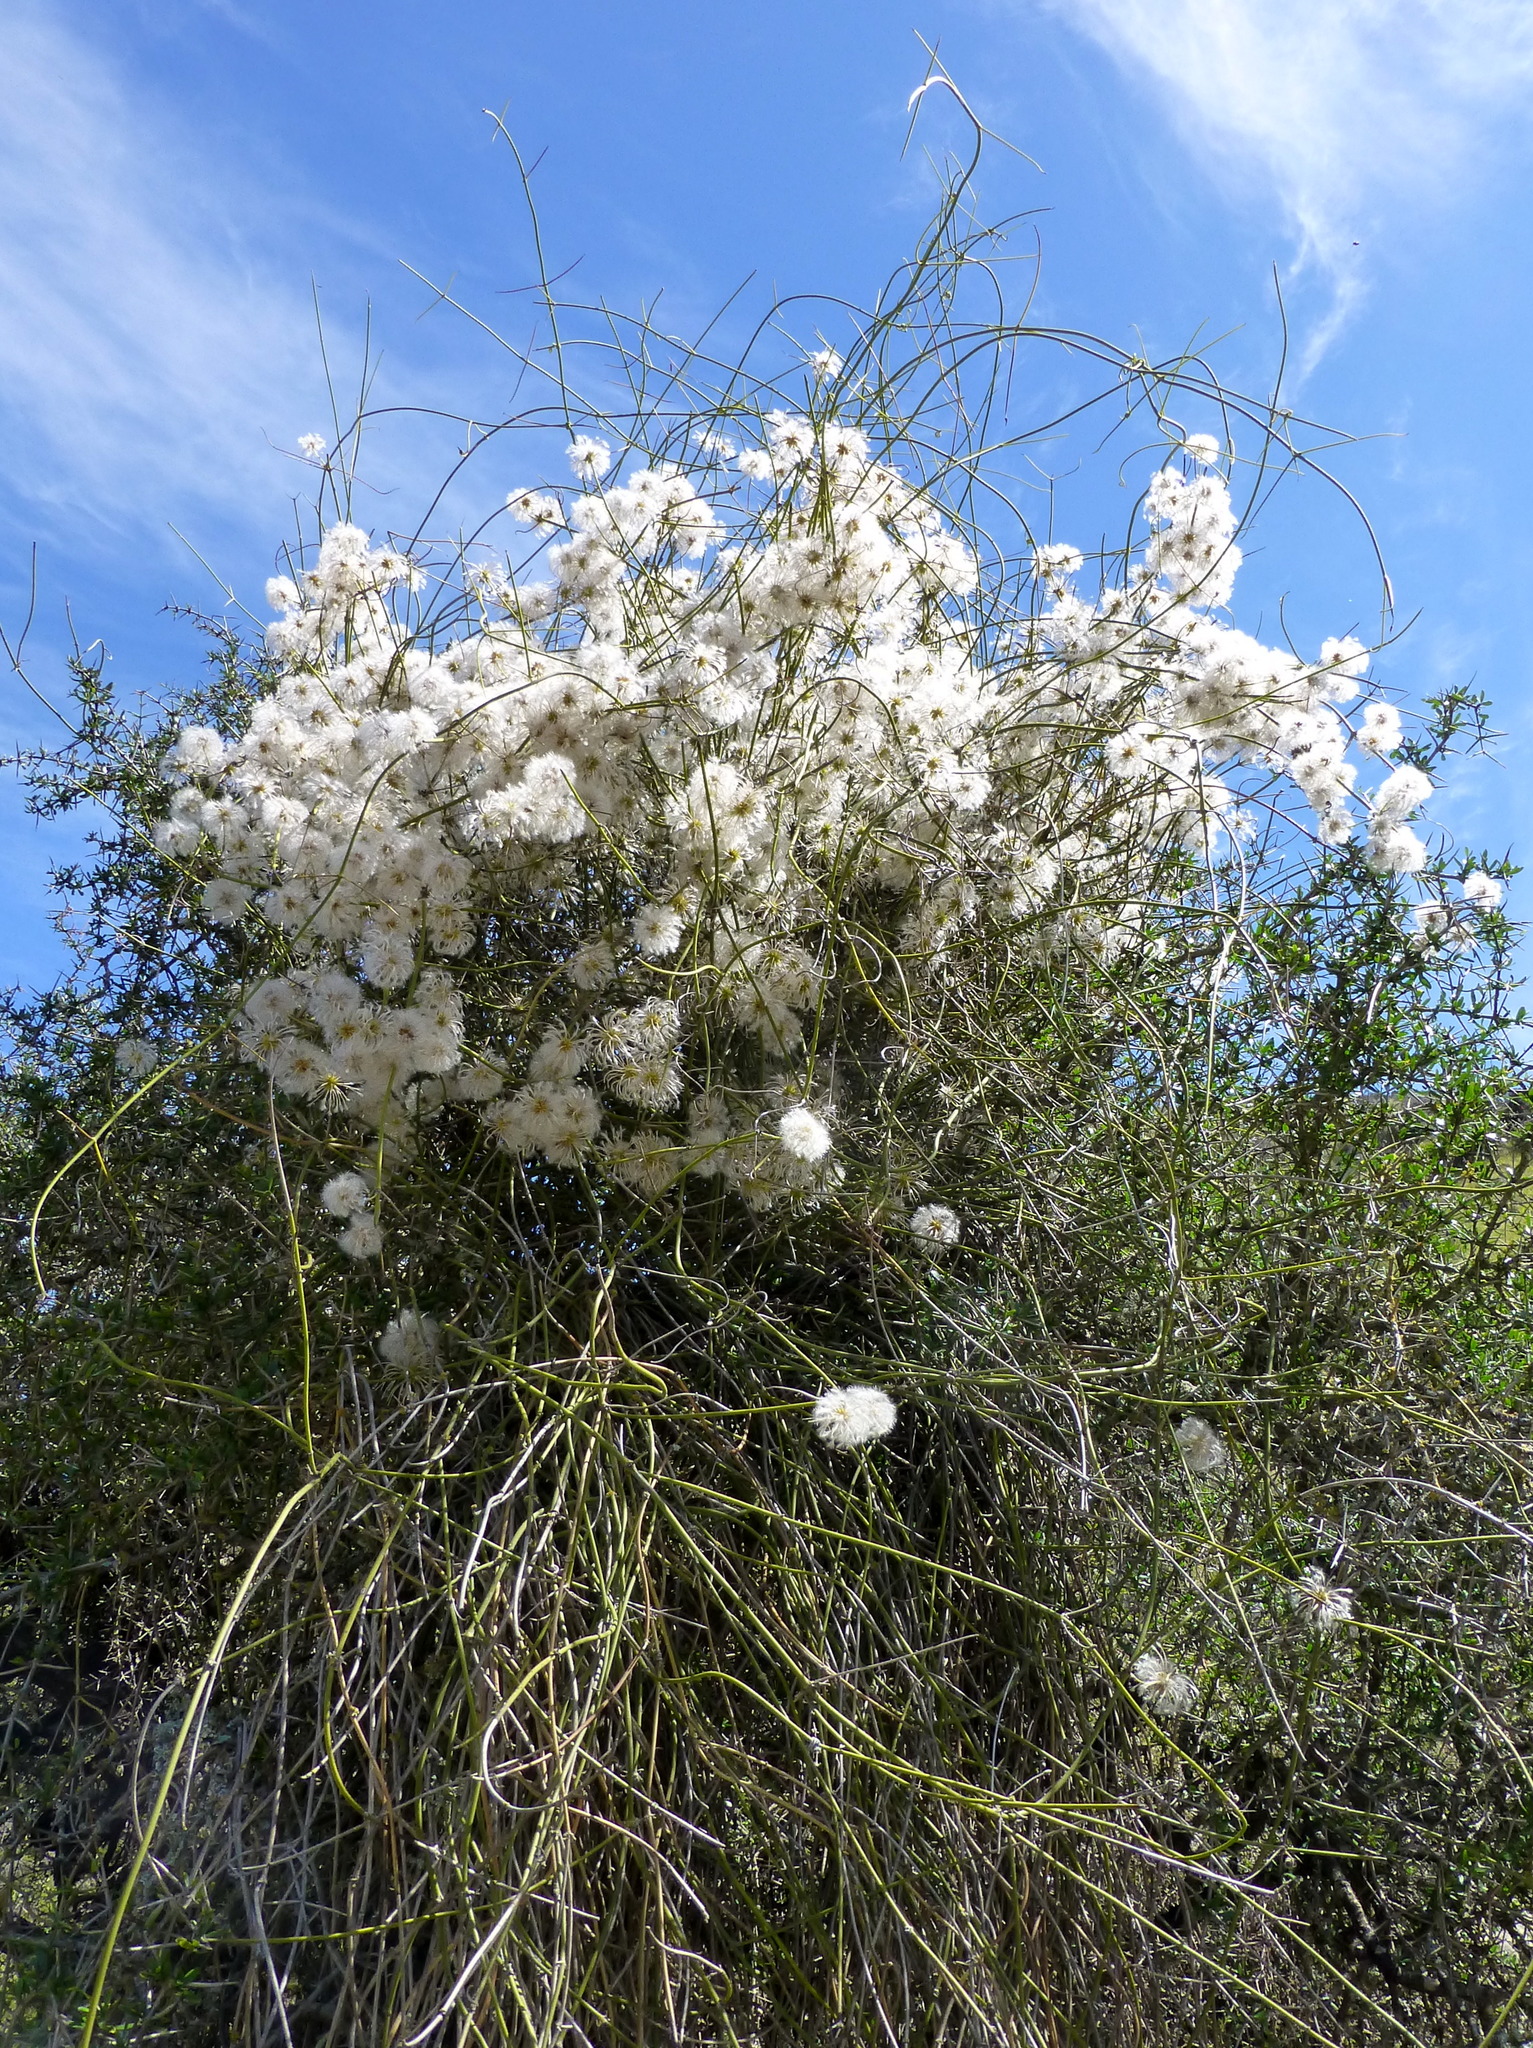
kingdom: Plantae
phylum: Tracheophyta
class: Magnoliopsida
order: Ranunculales
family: Ranunculaceae
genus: Clematis
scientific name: Clematis afoliata
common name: Rush-stem clematis
